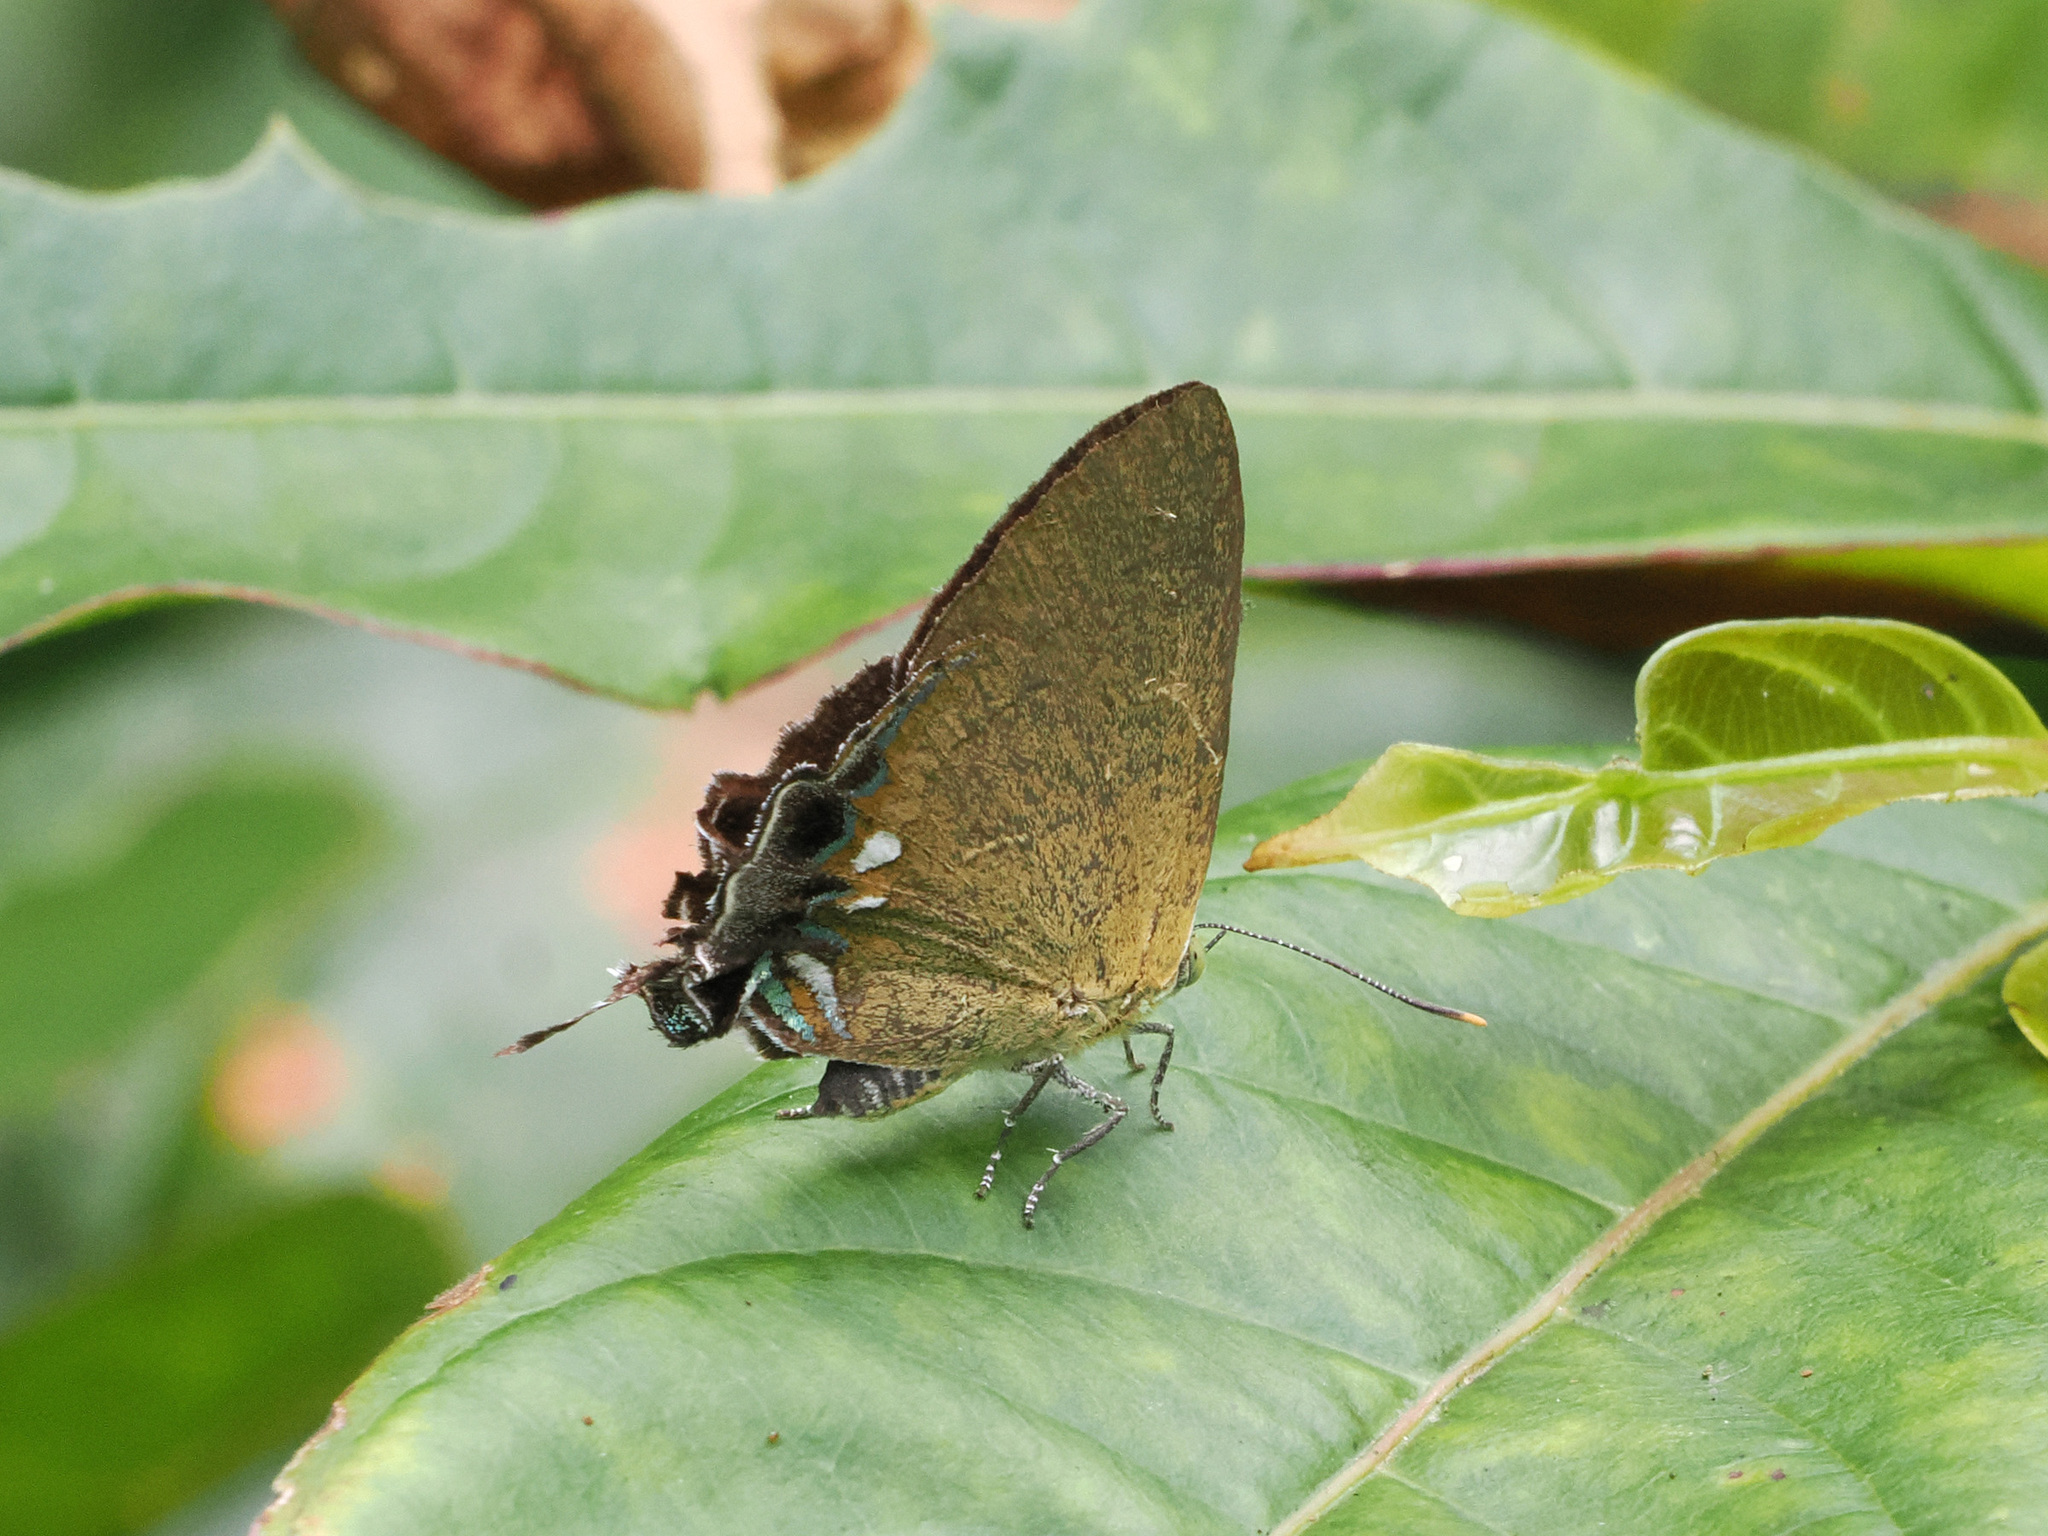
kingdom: Animalia
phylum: Arthropoda
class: Insecta
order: Lepidoptera
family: Lycaenidae
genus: Remelana
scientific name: Remelana jangala
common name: Chocolate royal
